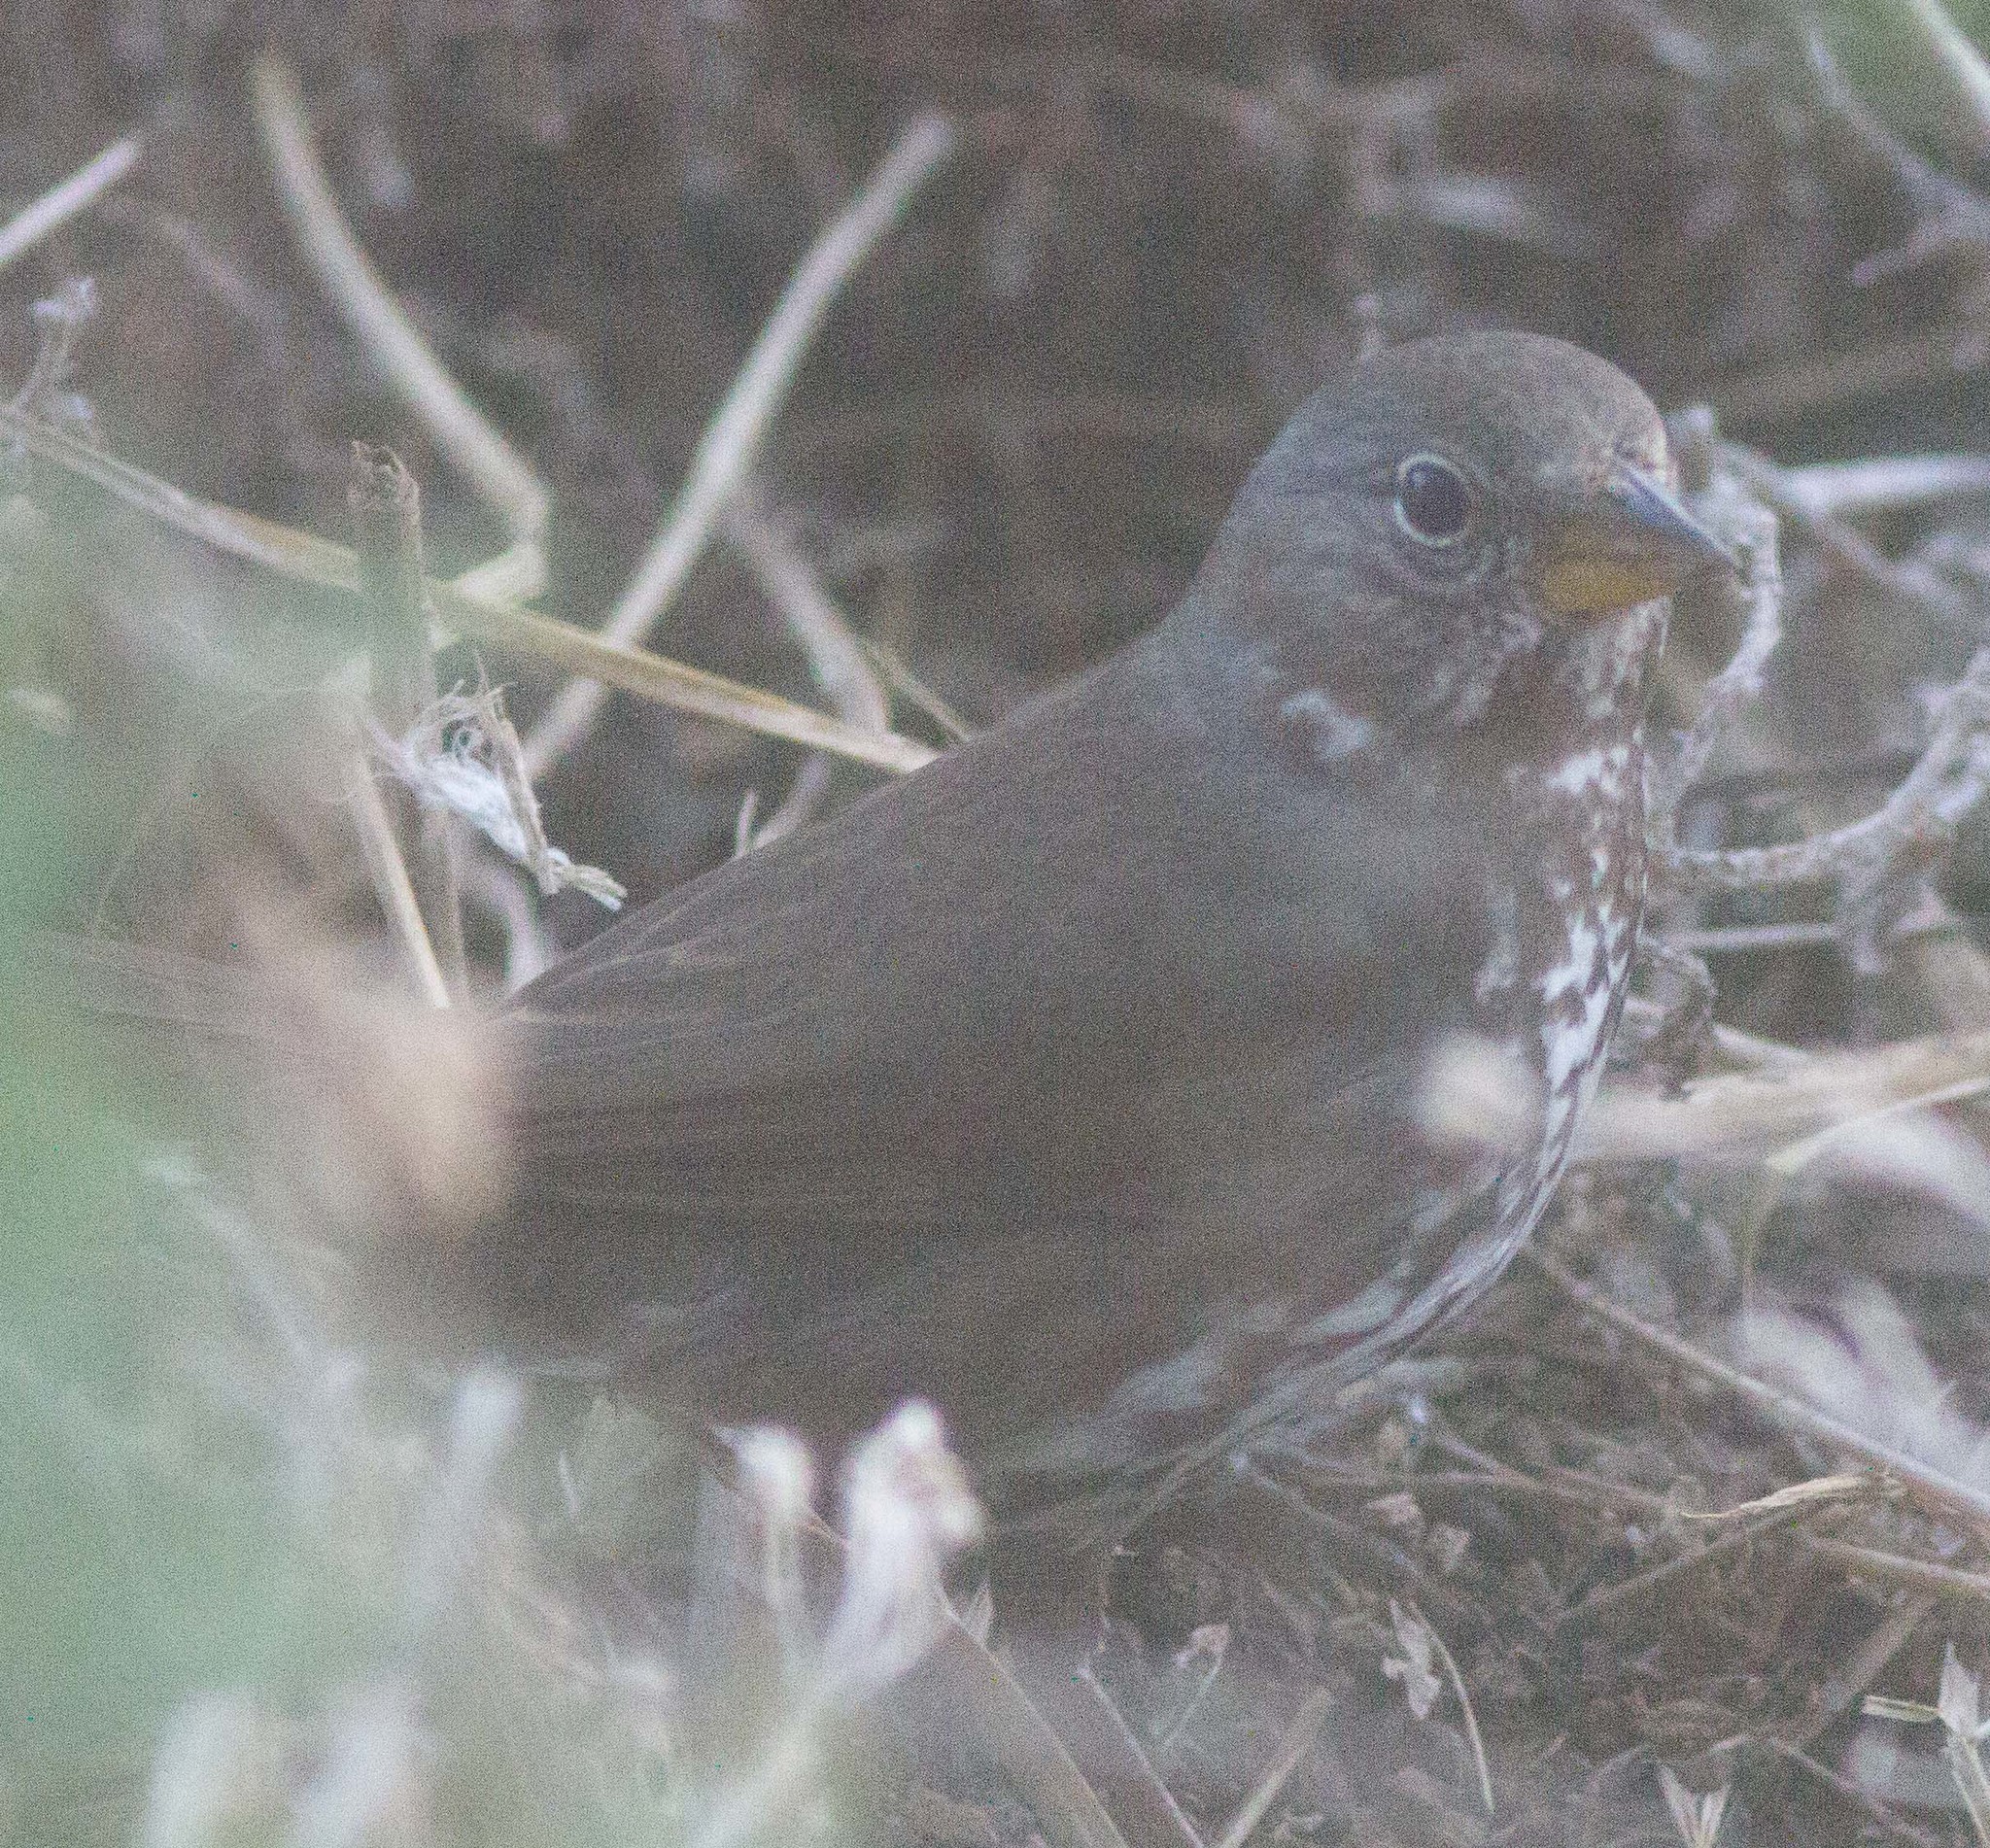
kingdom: Animalia
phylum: Chordata
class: Aves
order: Passeriformes
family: Passerellidae
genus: Passerella
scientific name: Passerella iliaca
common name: Fox sparrow
